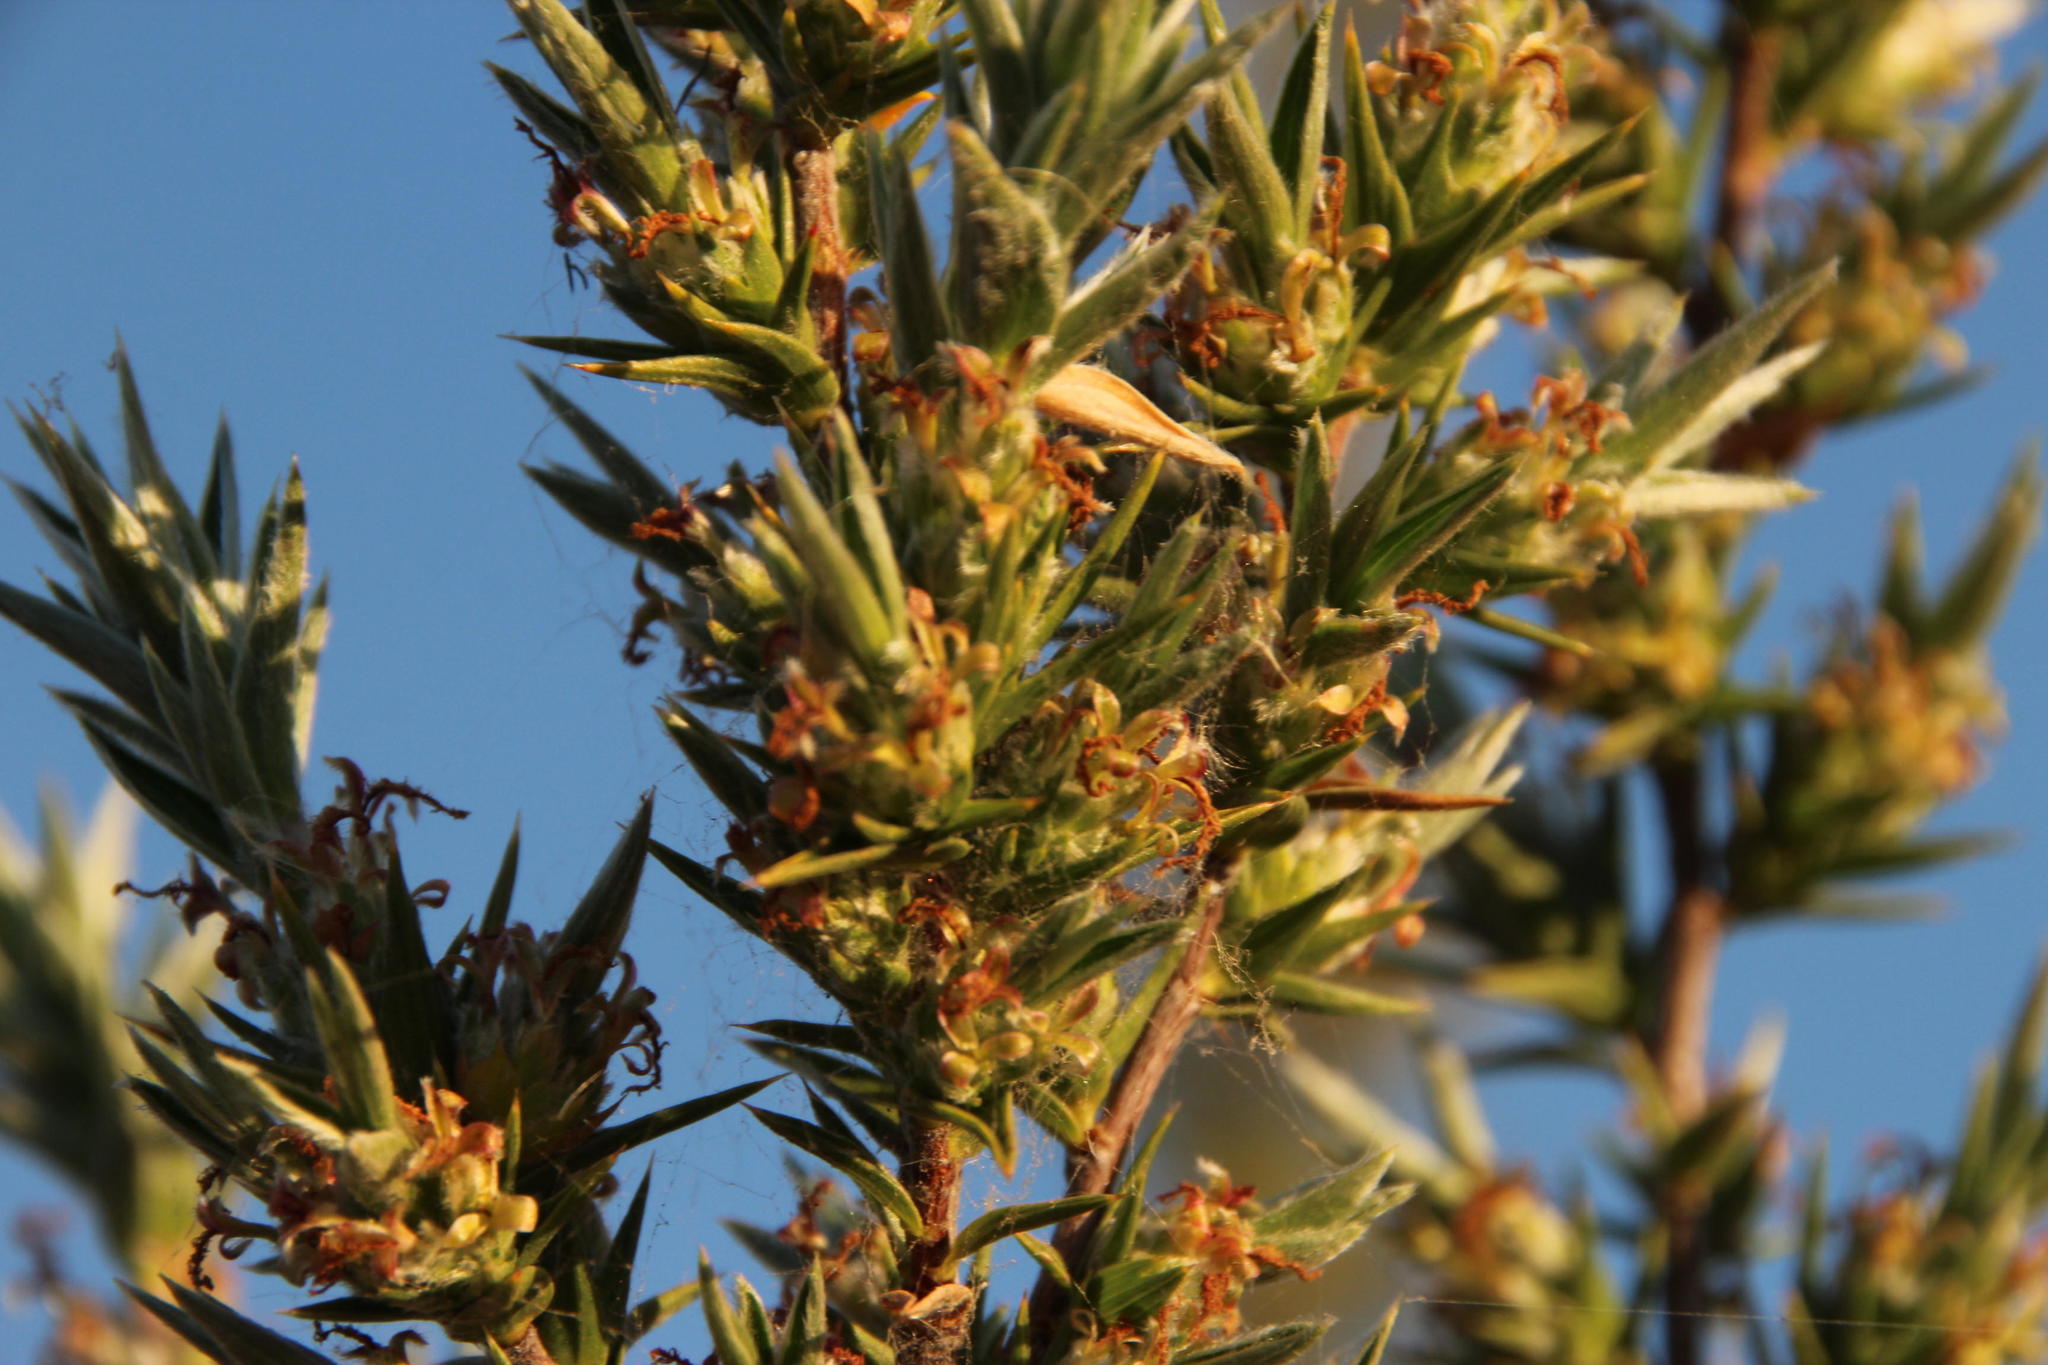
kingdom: Plantae
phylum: Tracheophyta
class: Magnoliopsida
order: Rosales
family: Rosaceae
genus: Cliffortia
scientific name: Cliffortia ruscifolia
